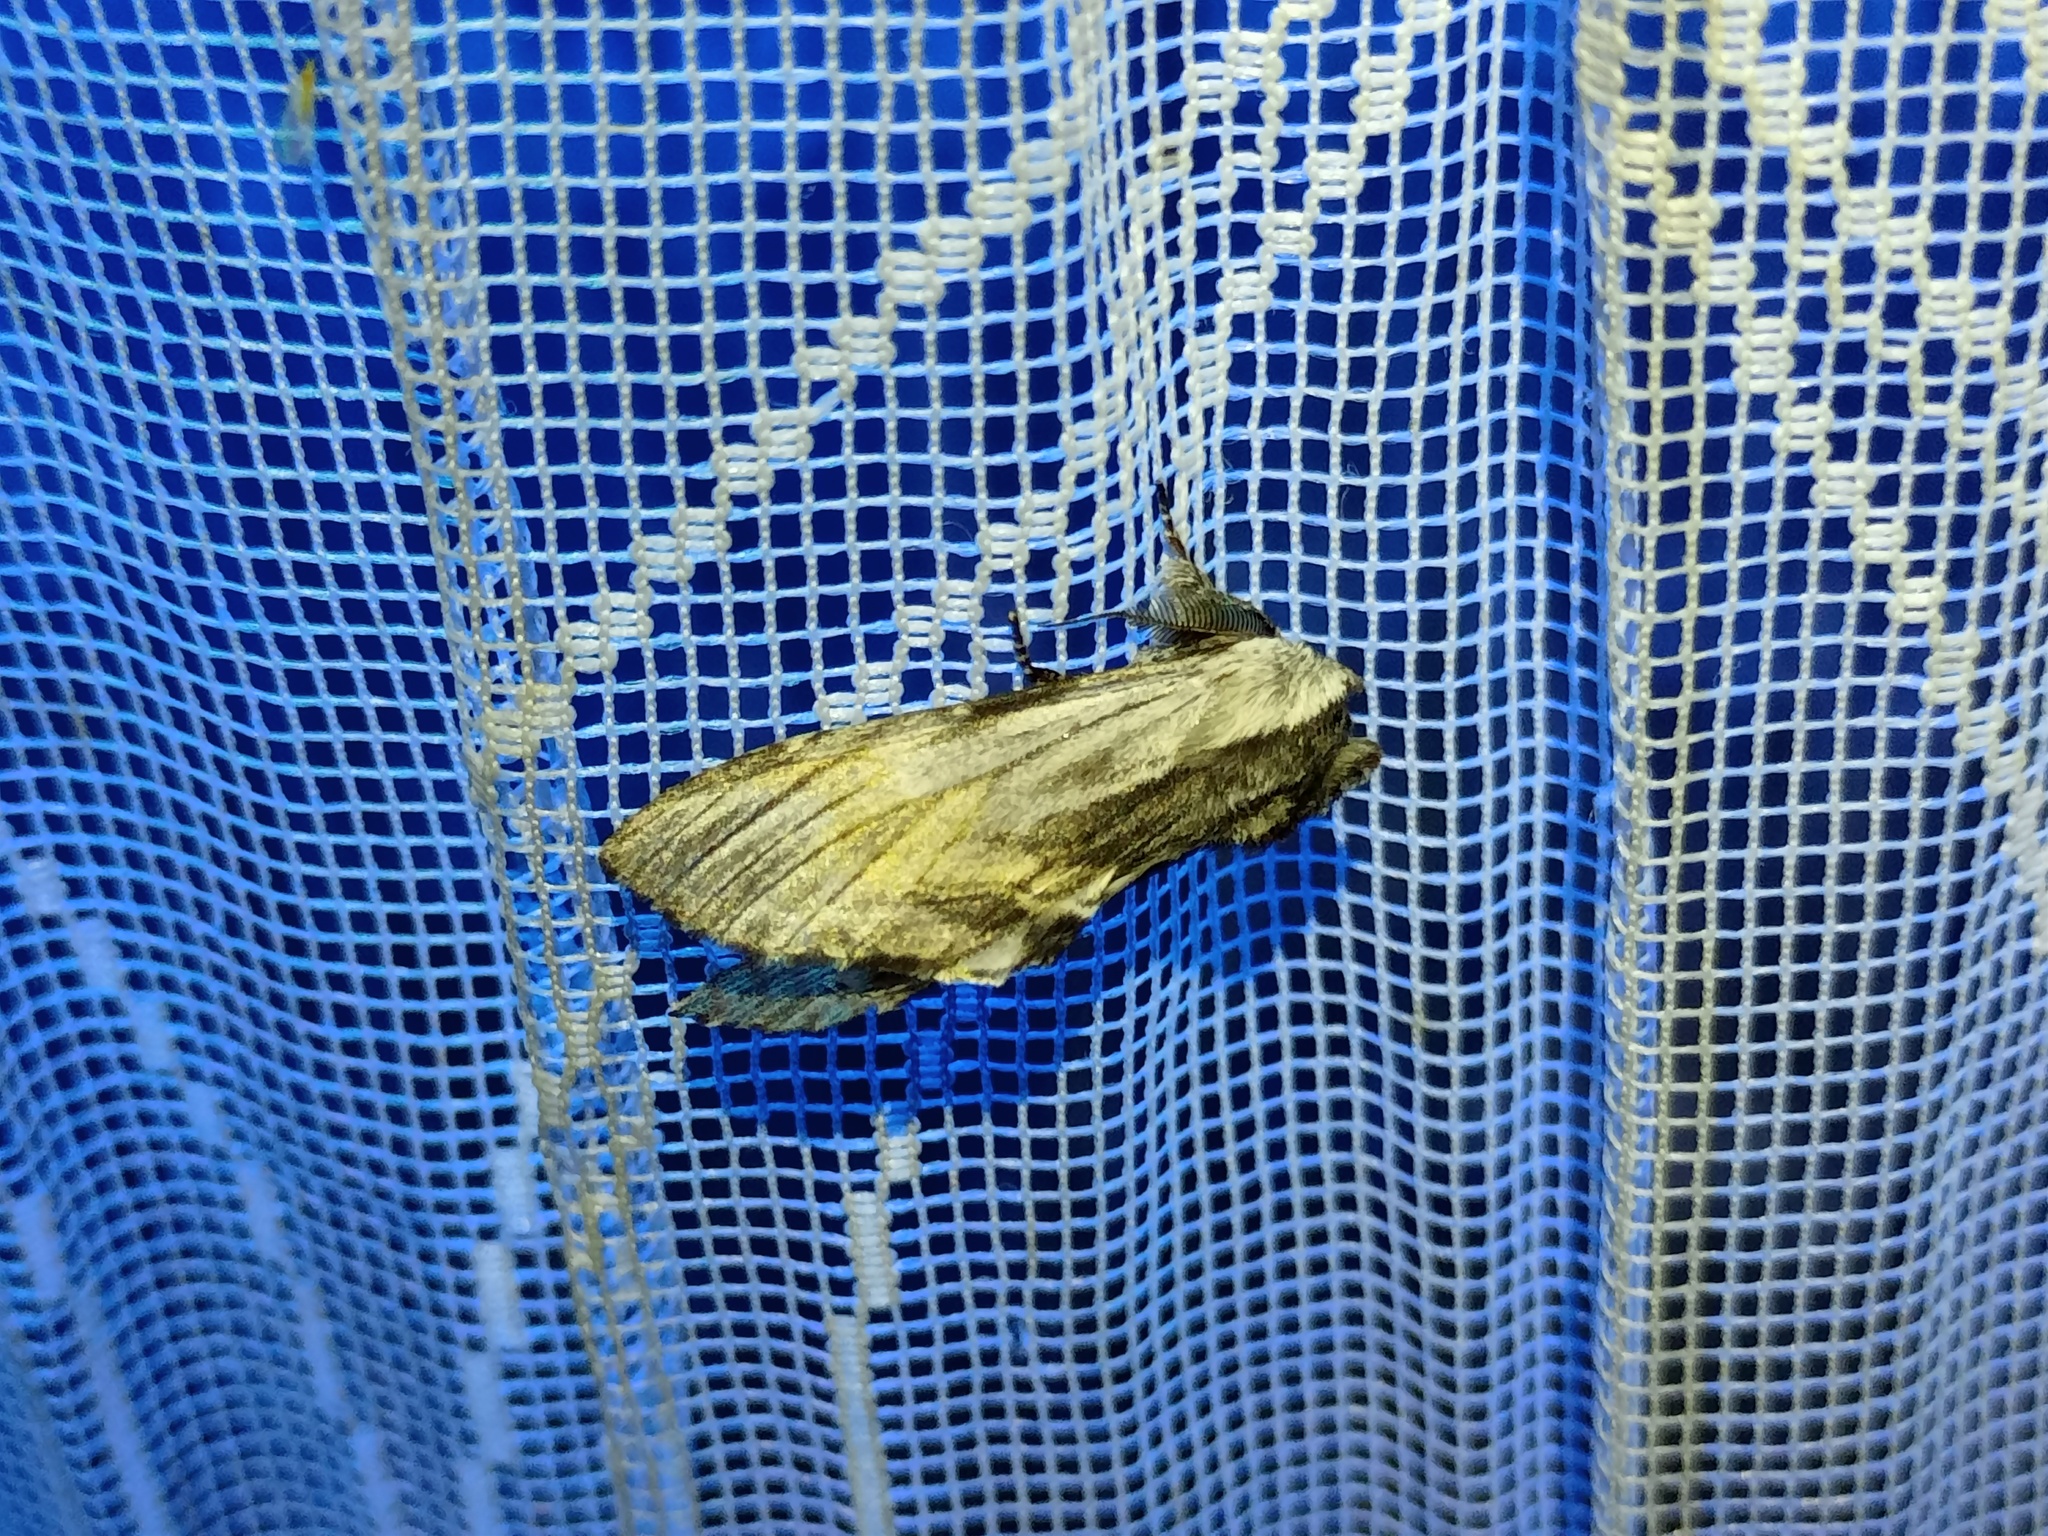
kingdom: Animalia
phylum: Arthropoda
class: Insecta
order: Lepidoptera
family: Notodontidae
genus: Harpyia
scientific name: Harpyia milhauseri
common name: Tawny prominent
